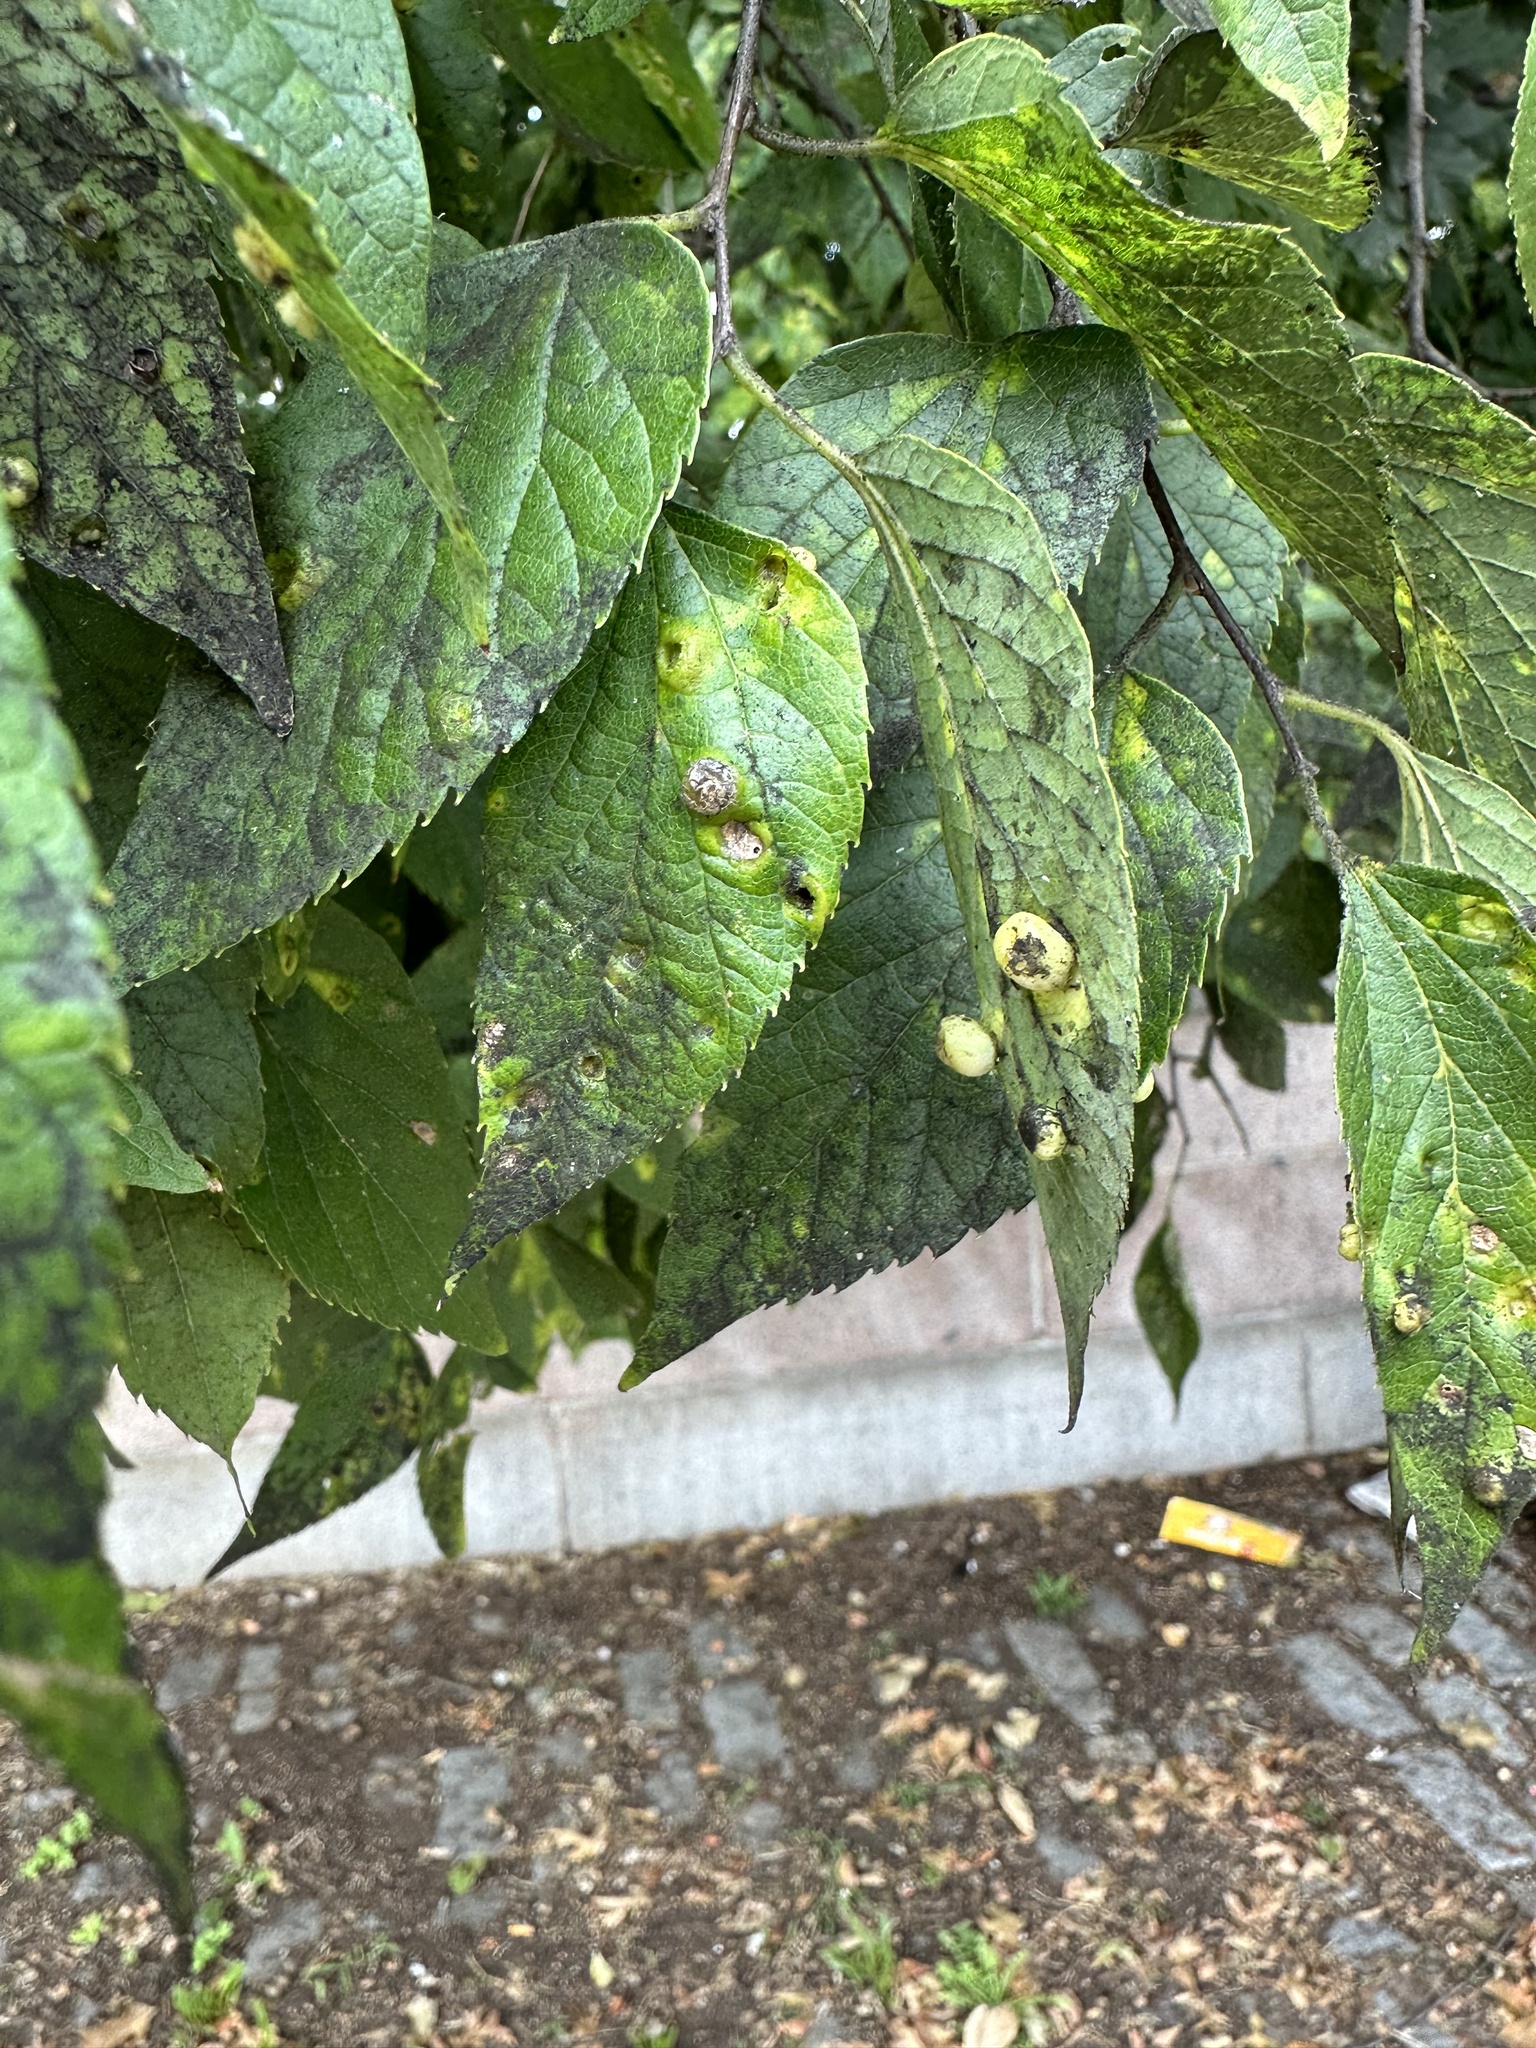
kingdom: Animalia
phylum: Arthropoda
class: Insecta
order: Hemiptera
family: Aphalaridae
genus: Pachypsylla
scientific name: Pachypsylla celtidismamma
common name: Hackberry nipplegall psyllid
